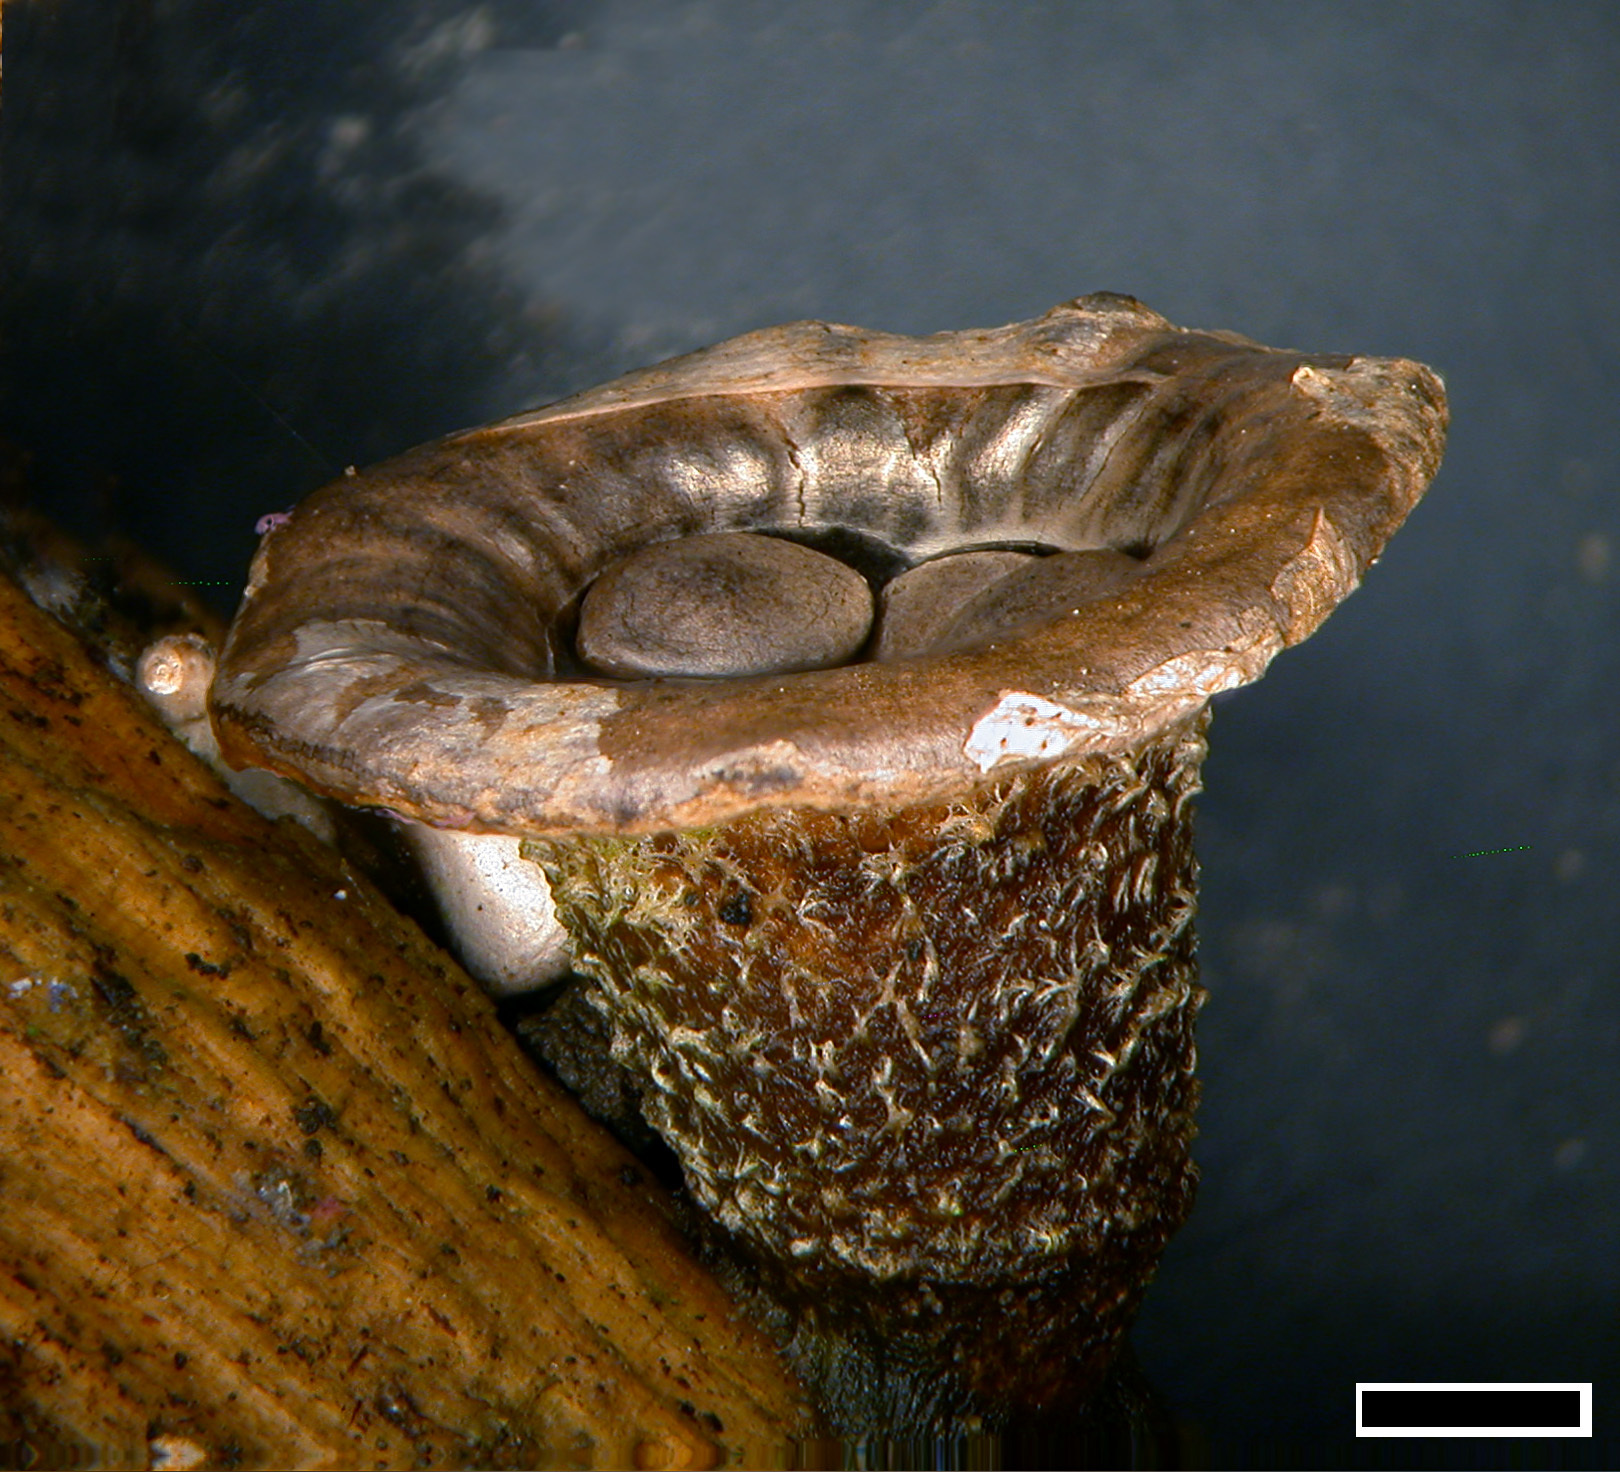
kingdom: Fungi
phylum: Basidiomycota
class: Agaricomycetes
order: Agaricales
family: Agaricaceae
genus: Cyathus
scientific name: Cyathus olla
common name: Field bird's nest
